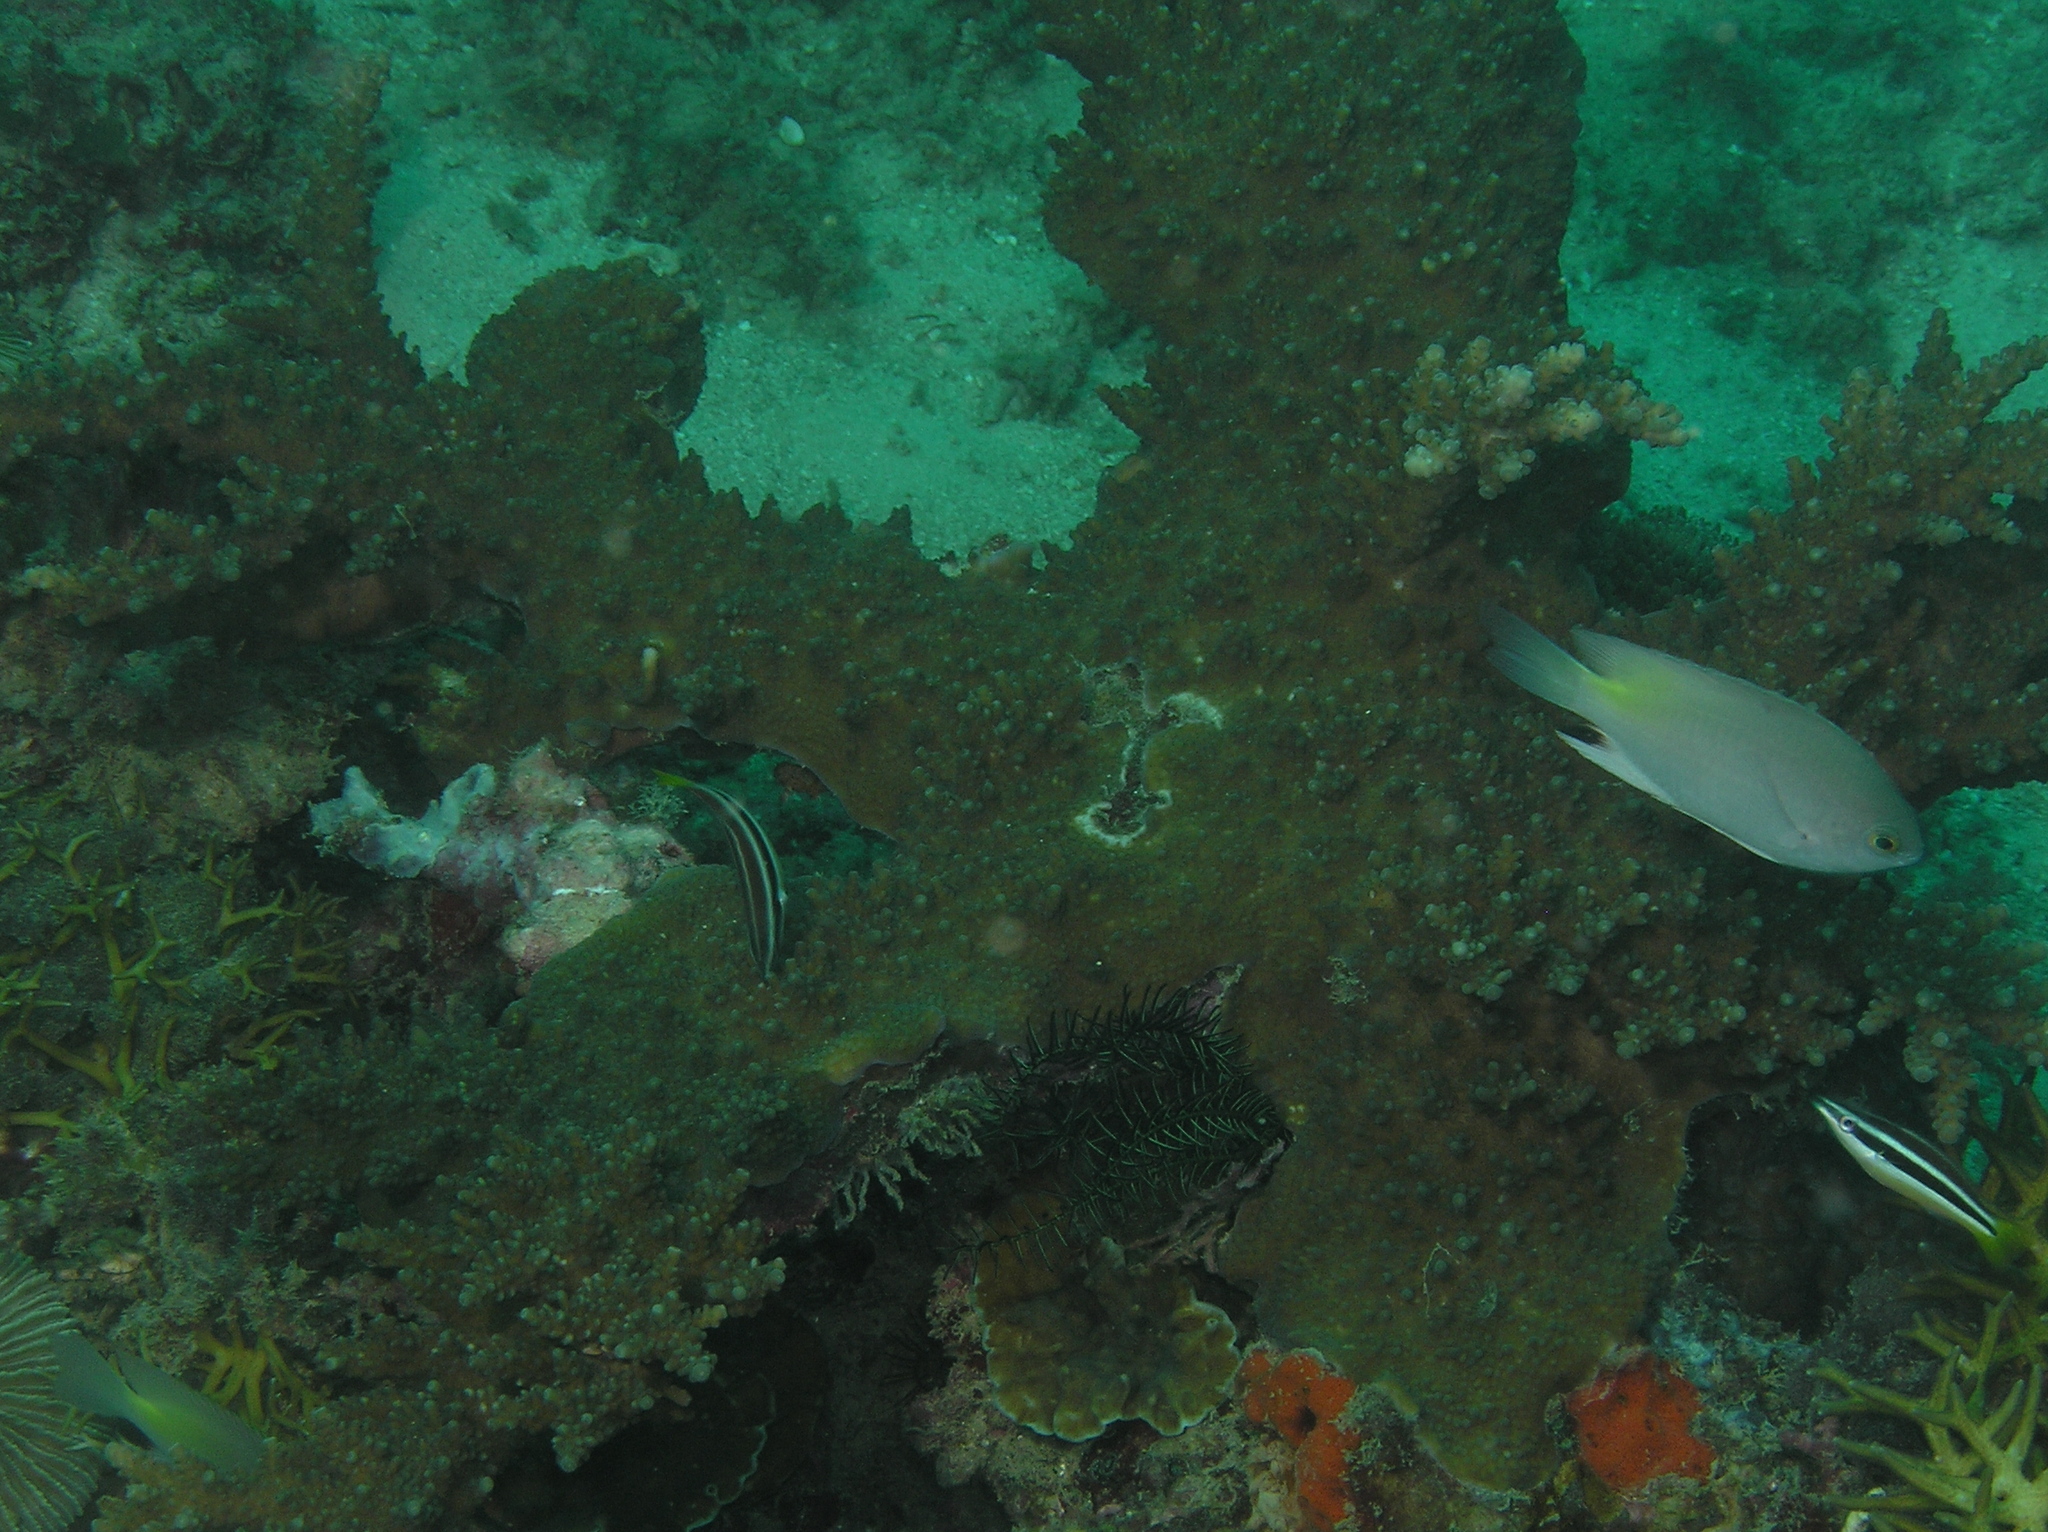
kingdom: Animalia
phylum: Chordata
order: Perciformes
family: Labridae
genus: Diproctacanthus
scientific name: Diproctacanthus xanthurus
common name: Wandering cleaner wrasse
